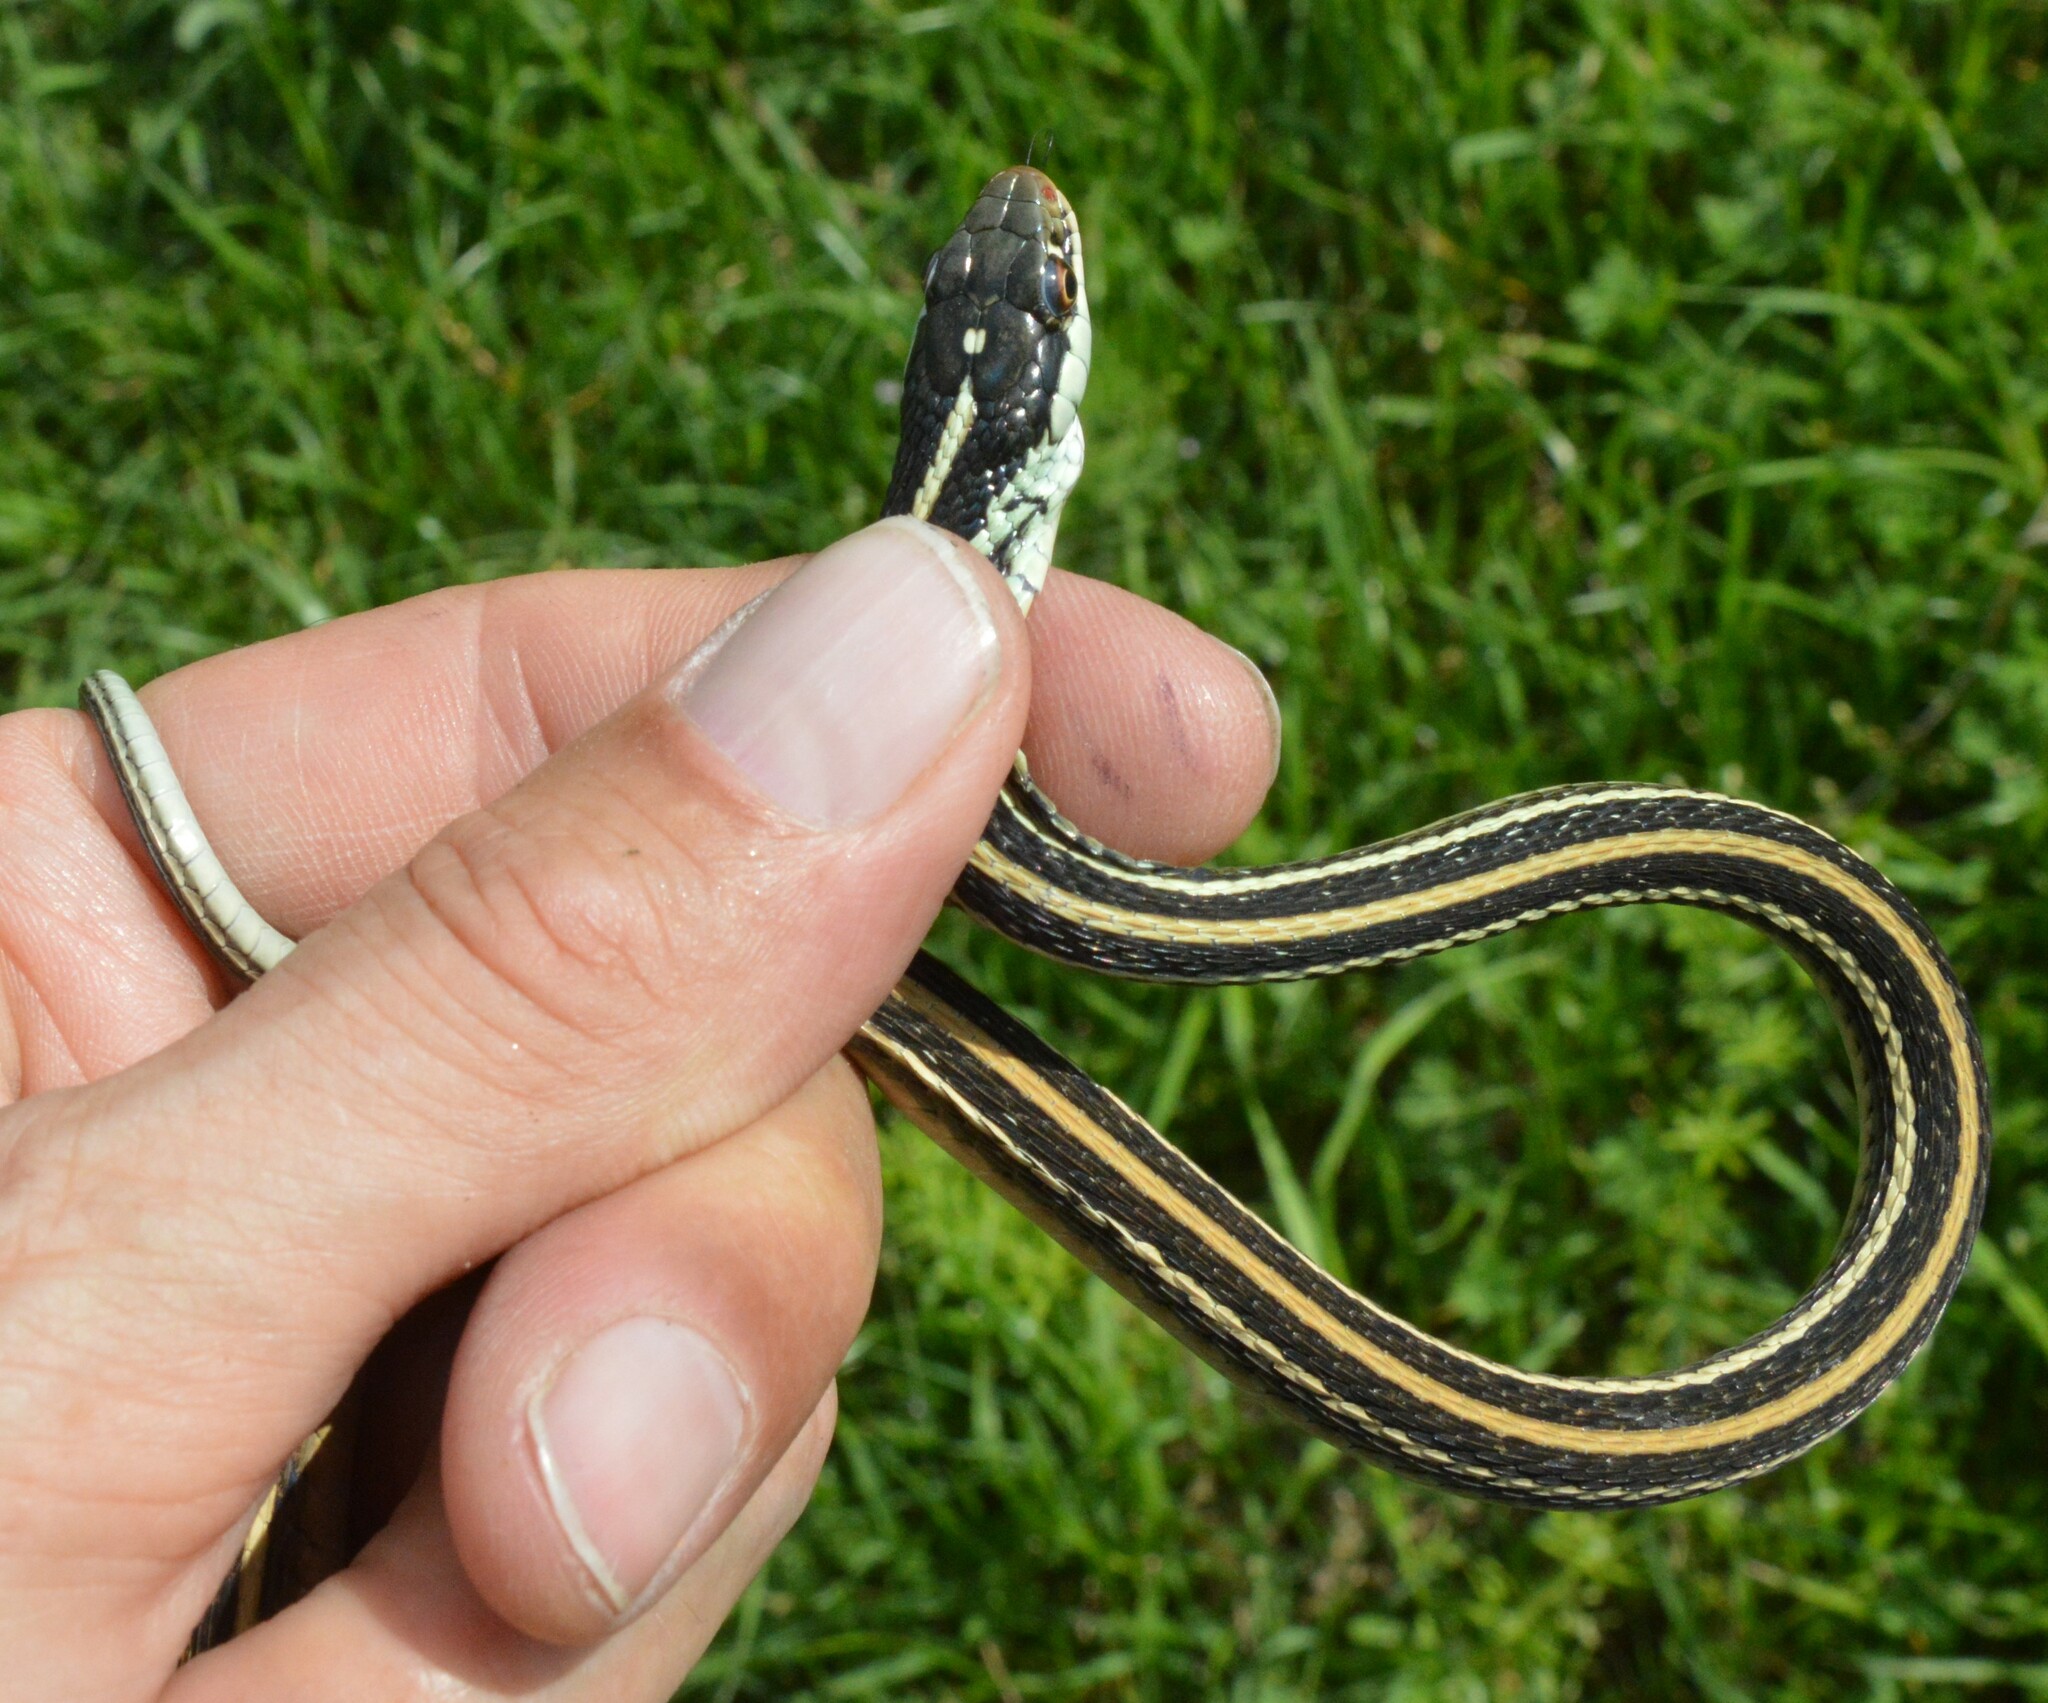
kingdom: Animalia
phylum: Chordata
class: Squamata
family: Colubridae
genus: Thamnophis
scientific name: Thamnophis proximus
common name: Western ribbon snake
